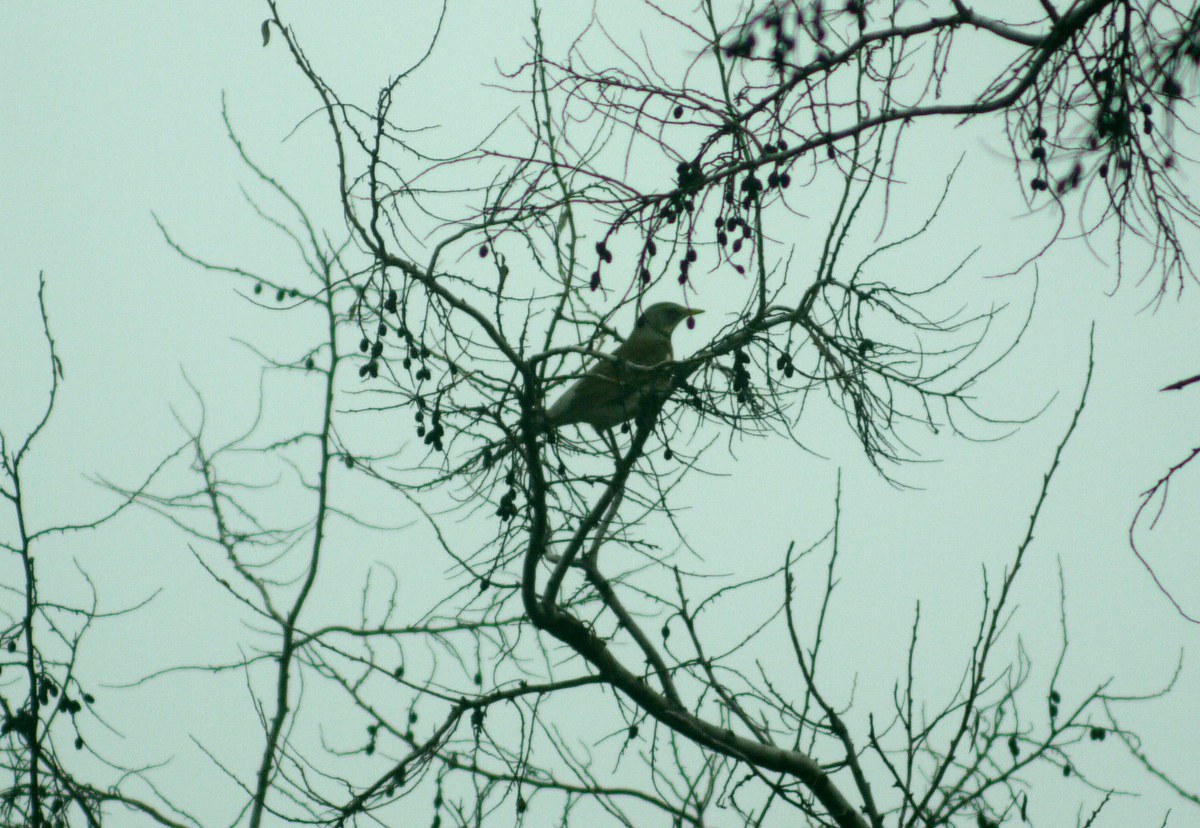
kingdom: Animalia
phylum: Chordata
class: Aves
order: Passeriformes
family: Turdidae
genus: Turdus
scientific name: Turdus pilaris
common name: Fieldfare
